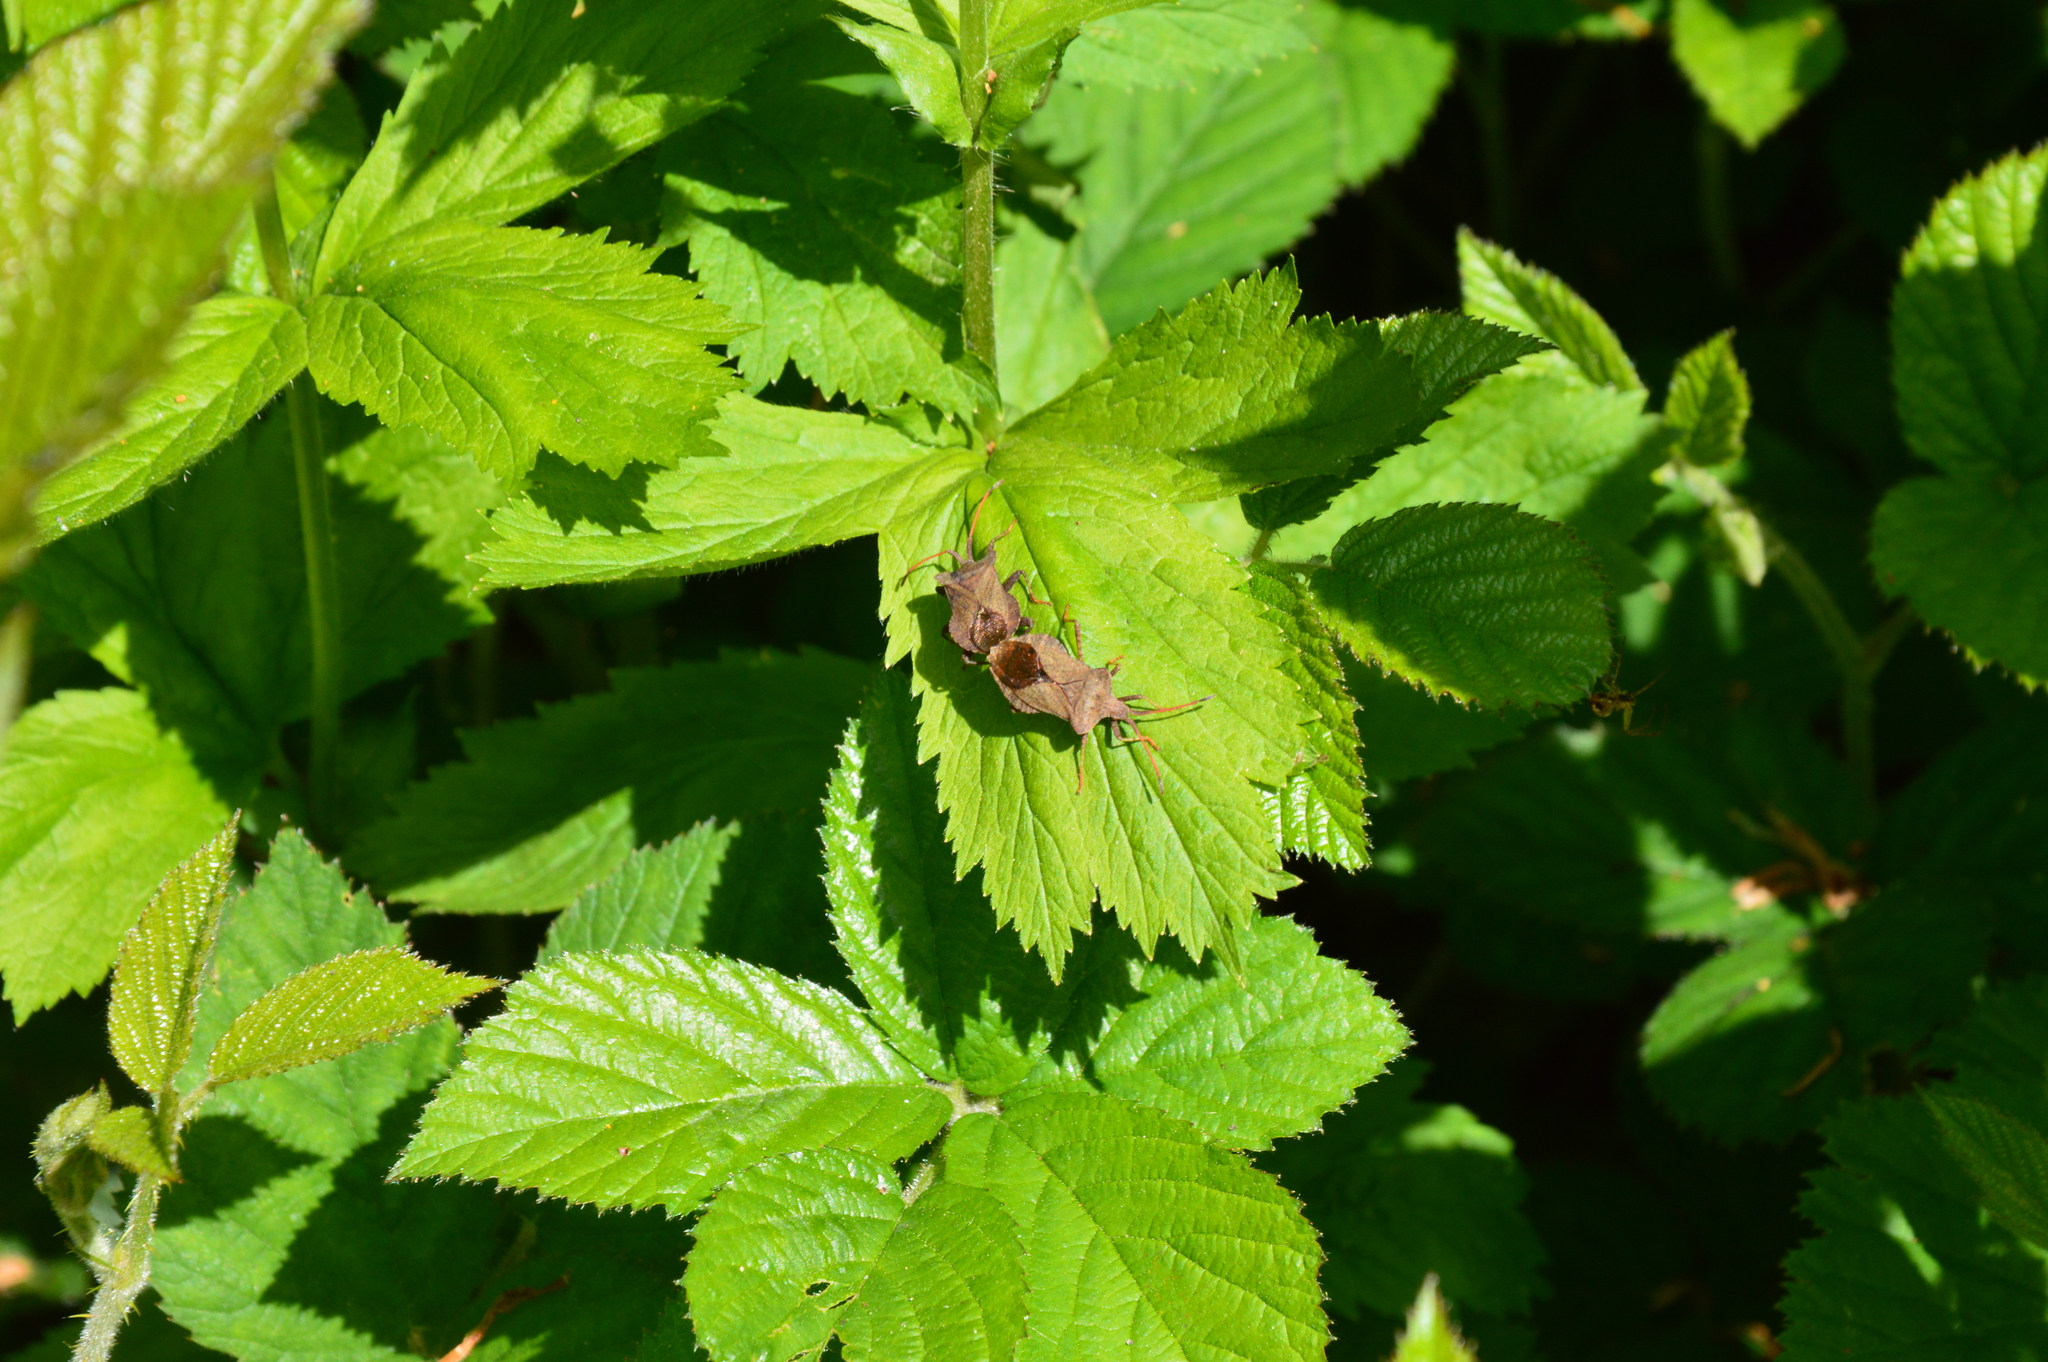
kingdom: Animalia
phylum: Arthropoda
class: Insecta
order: Hemiptera
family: Coreidae
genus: Coreus
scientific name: Coreus marginatus
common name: Dock bug
